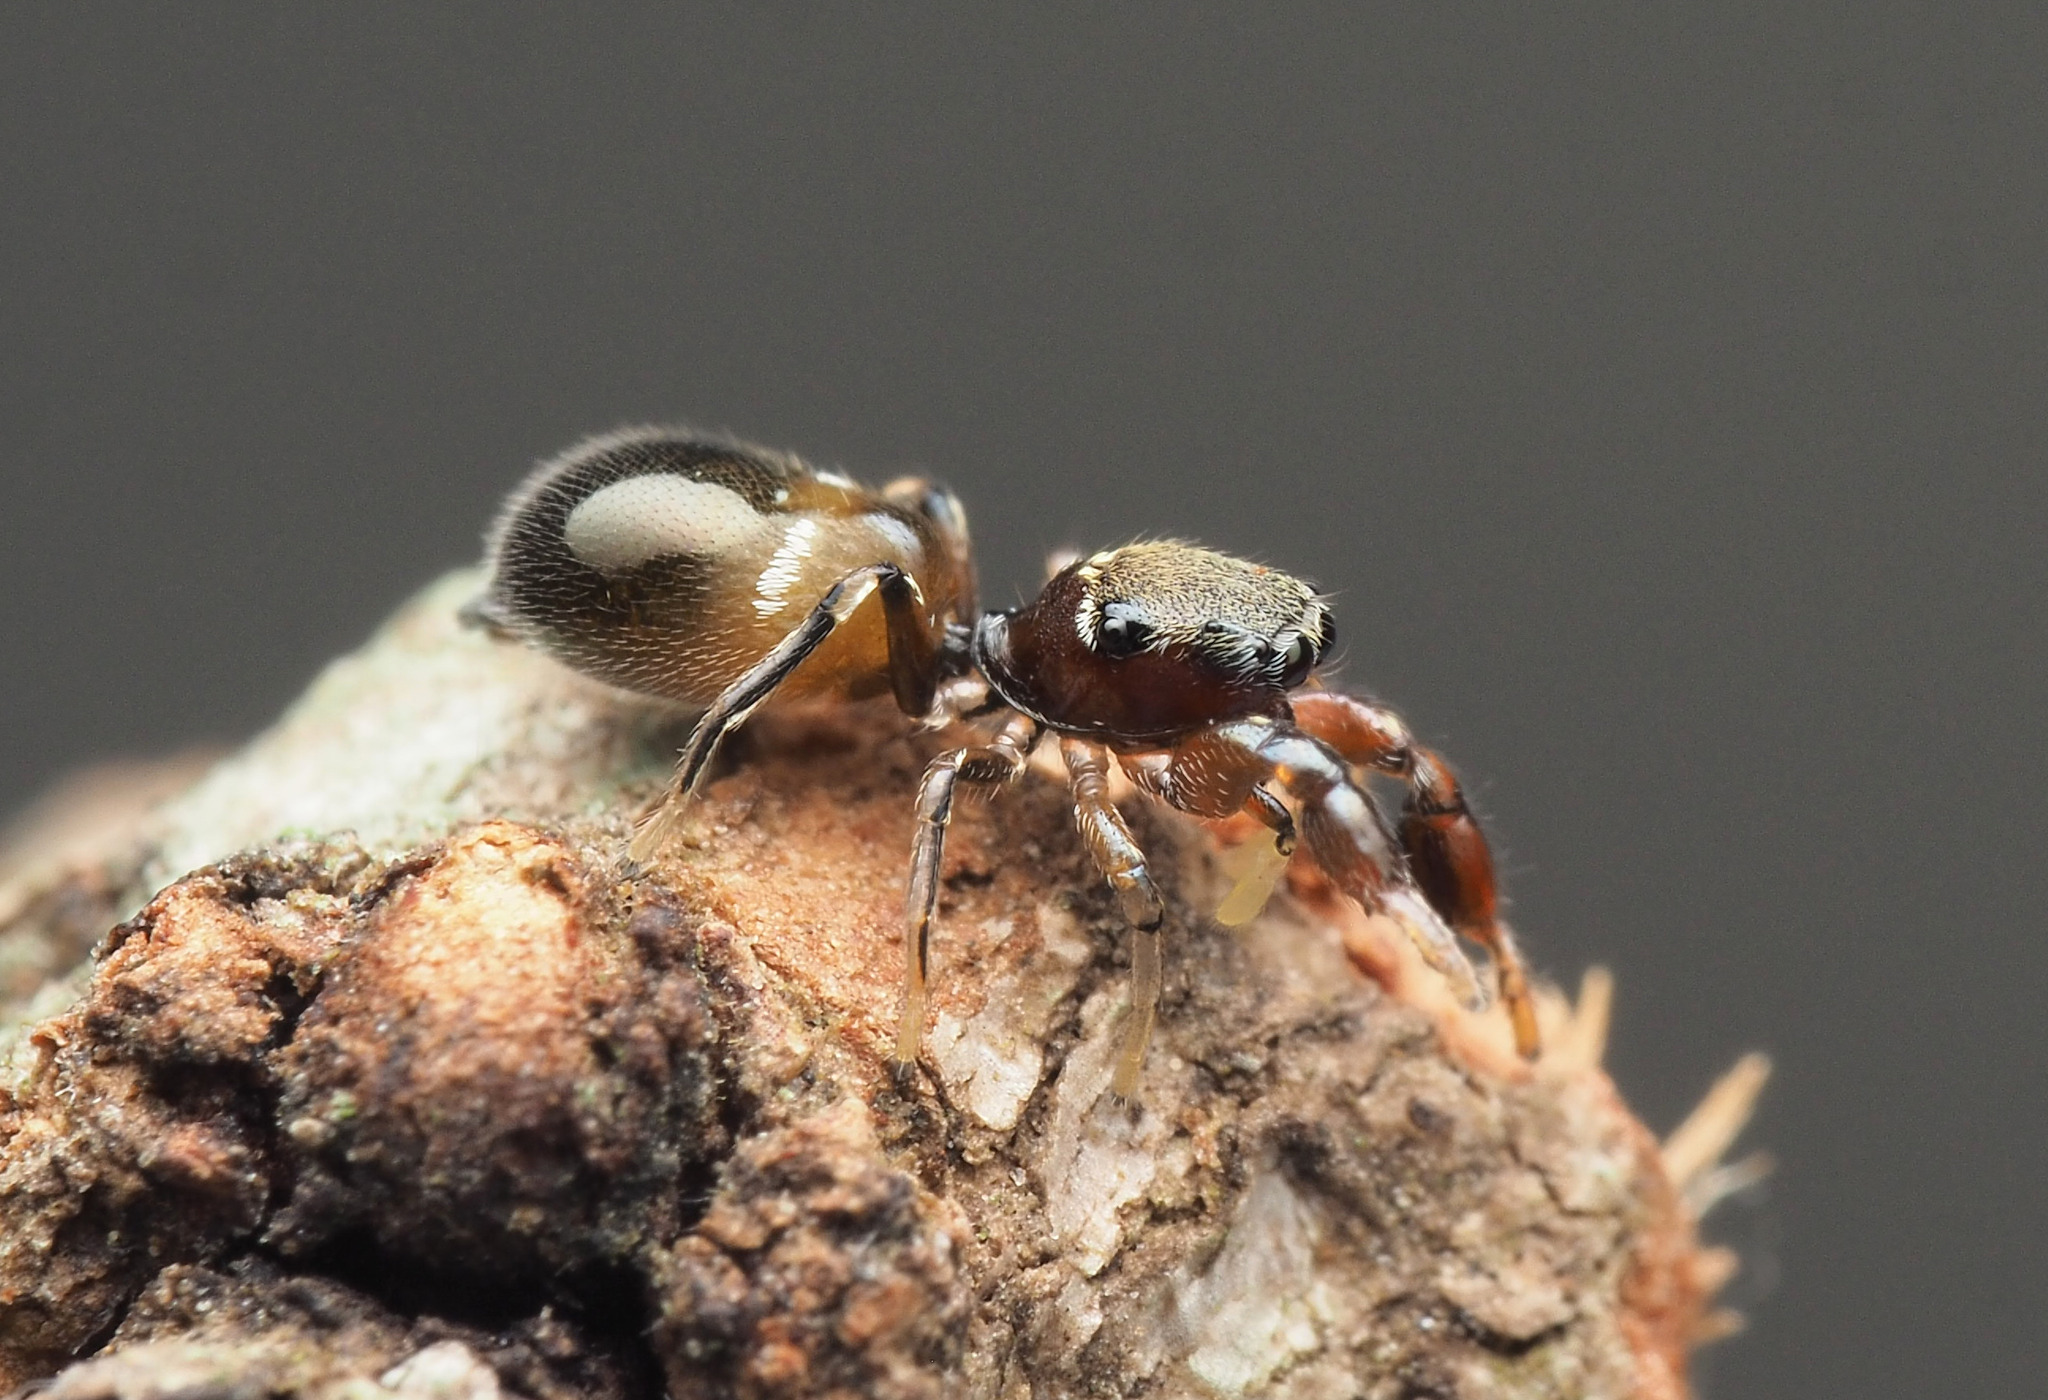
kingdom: Animalia
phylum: Arthropoda
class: Arachnida
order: Araneae
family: Salticidae
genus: Ligonipes
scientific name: Ligonipes
